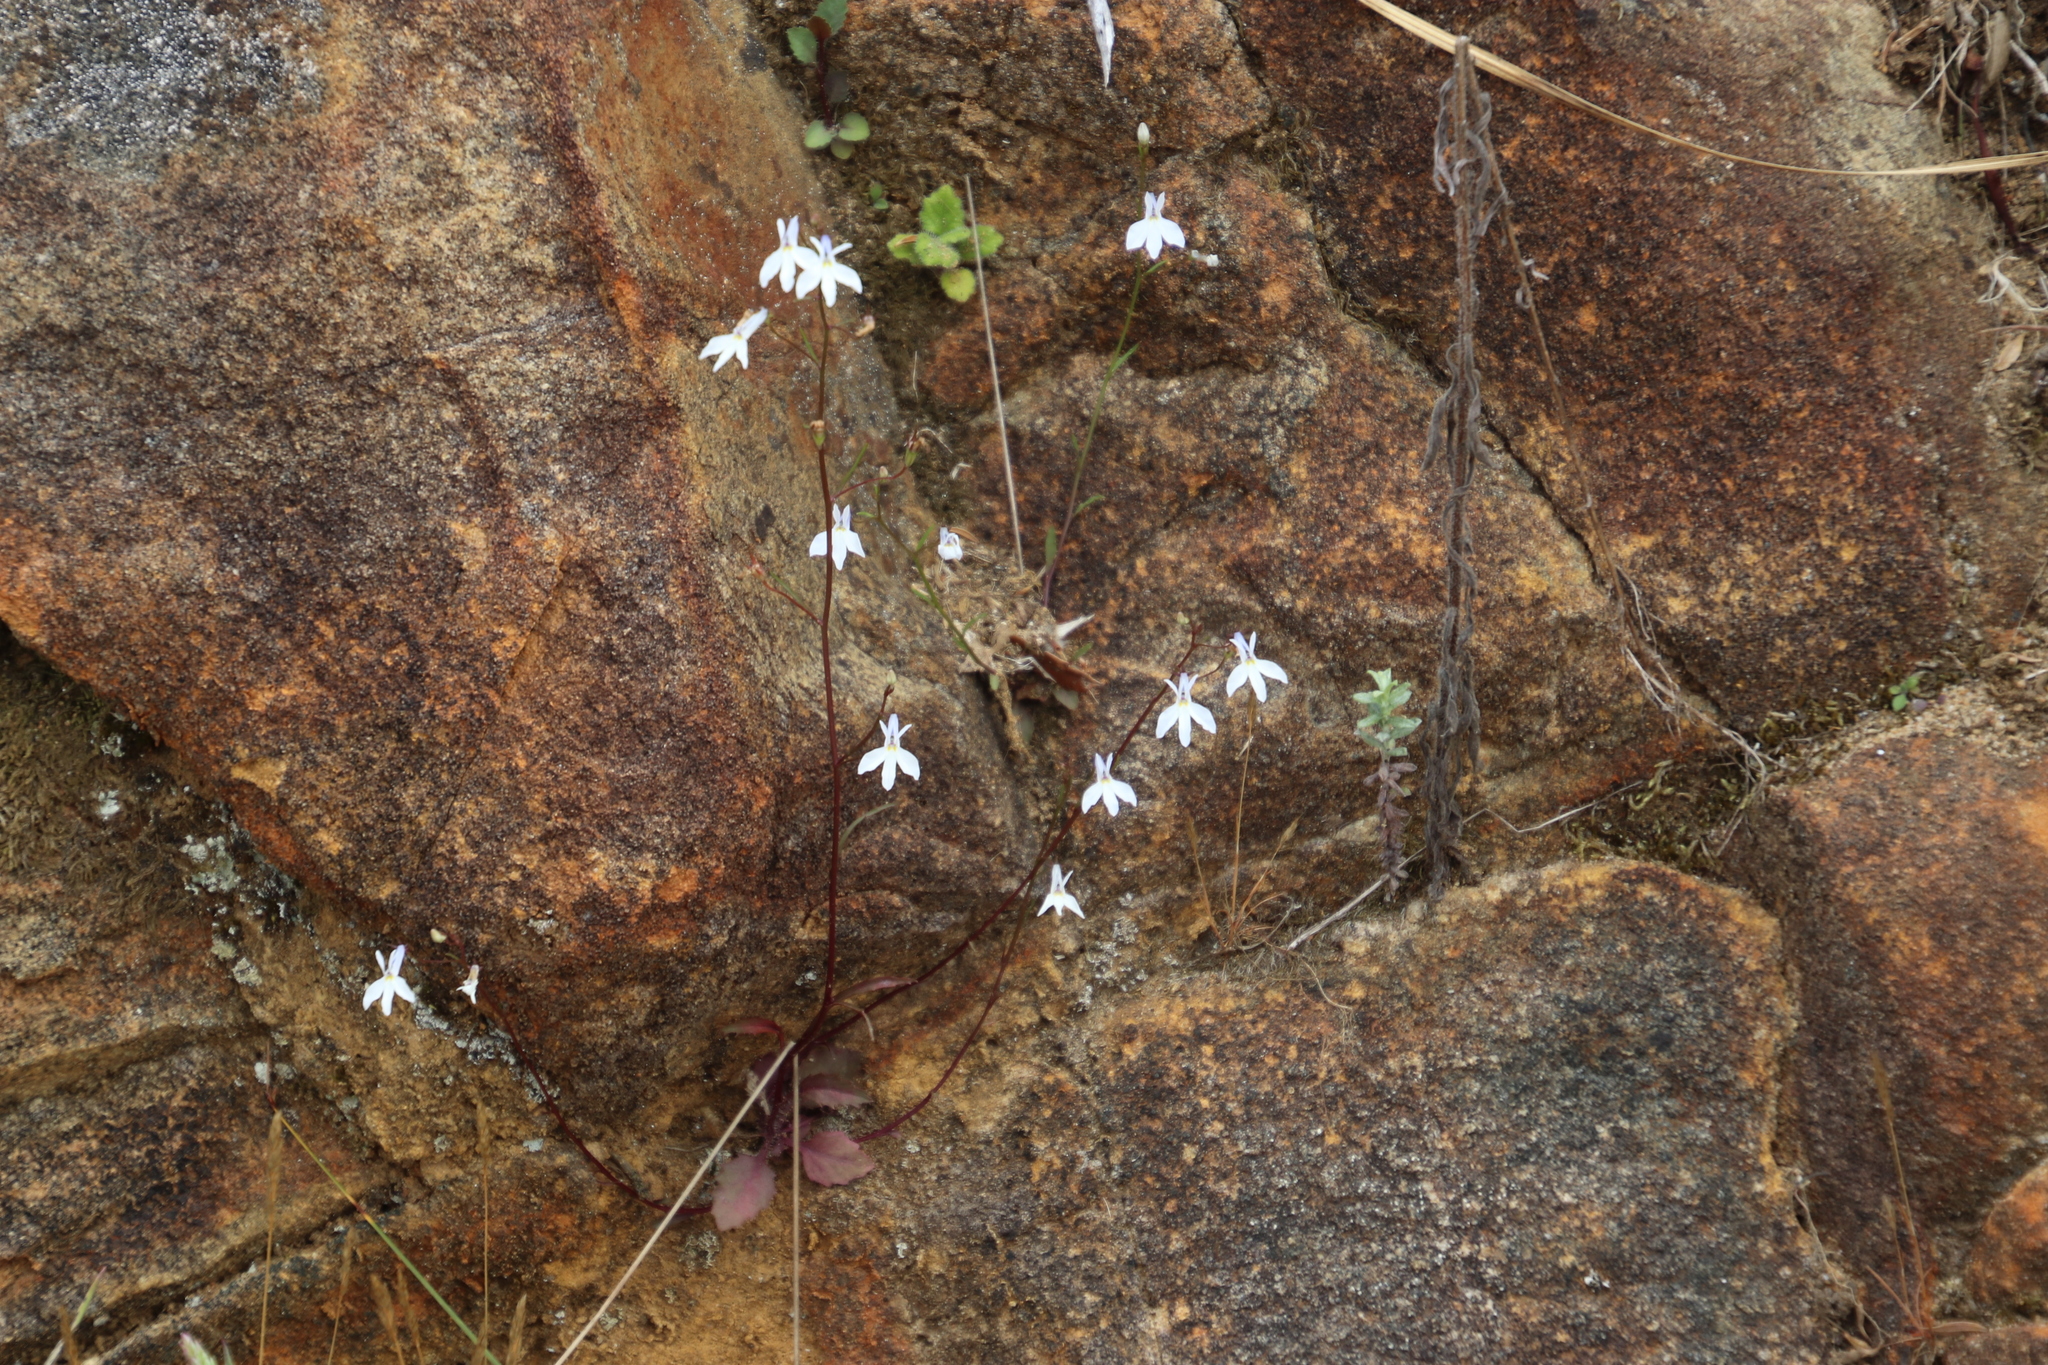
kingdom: Plantae
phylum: Tracheophyta
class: Magnoliopsida
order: Asterales
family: Campanulaceae
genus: Lobelia
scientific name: Lobelia pubescens
